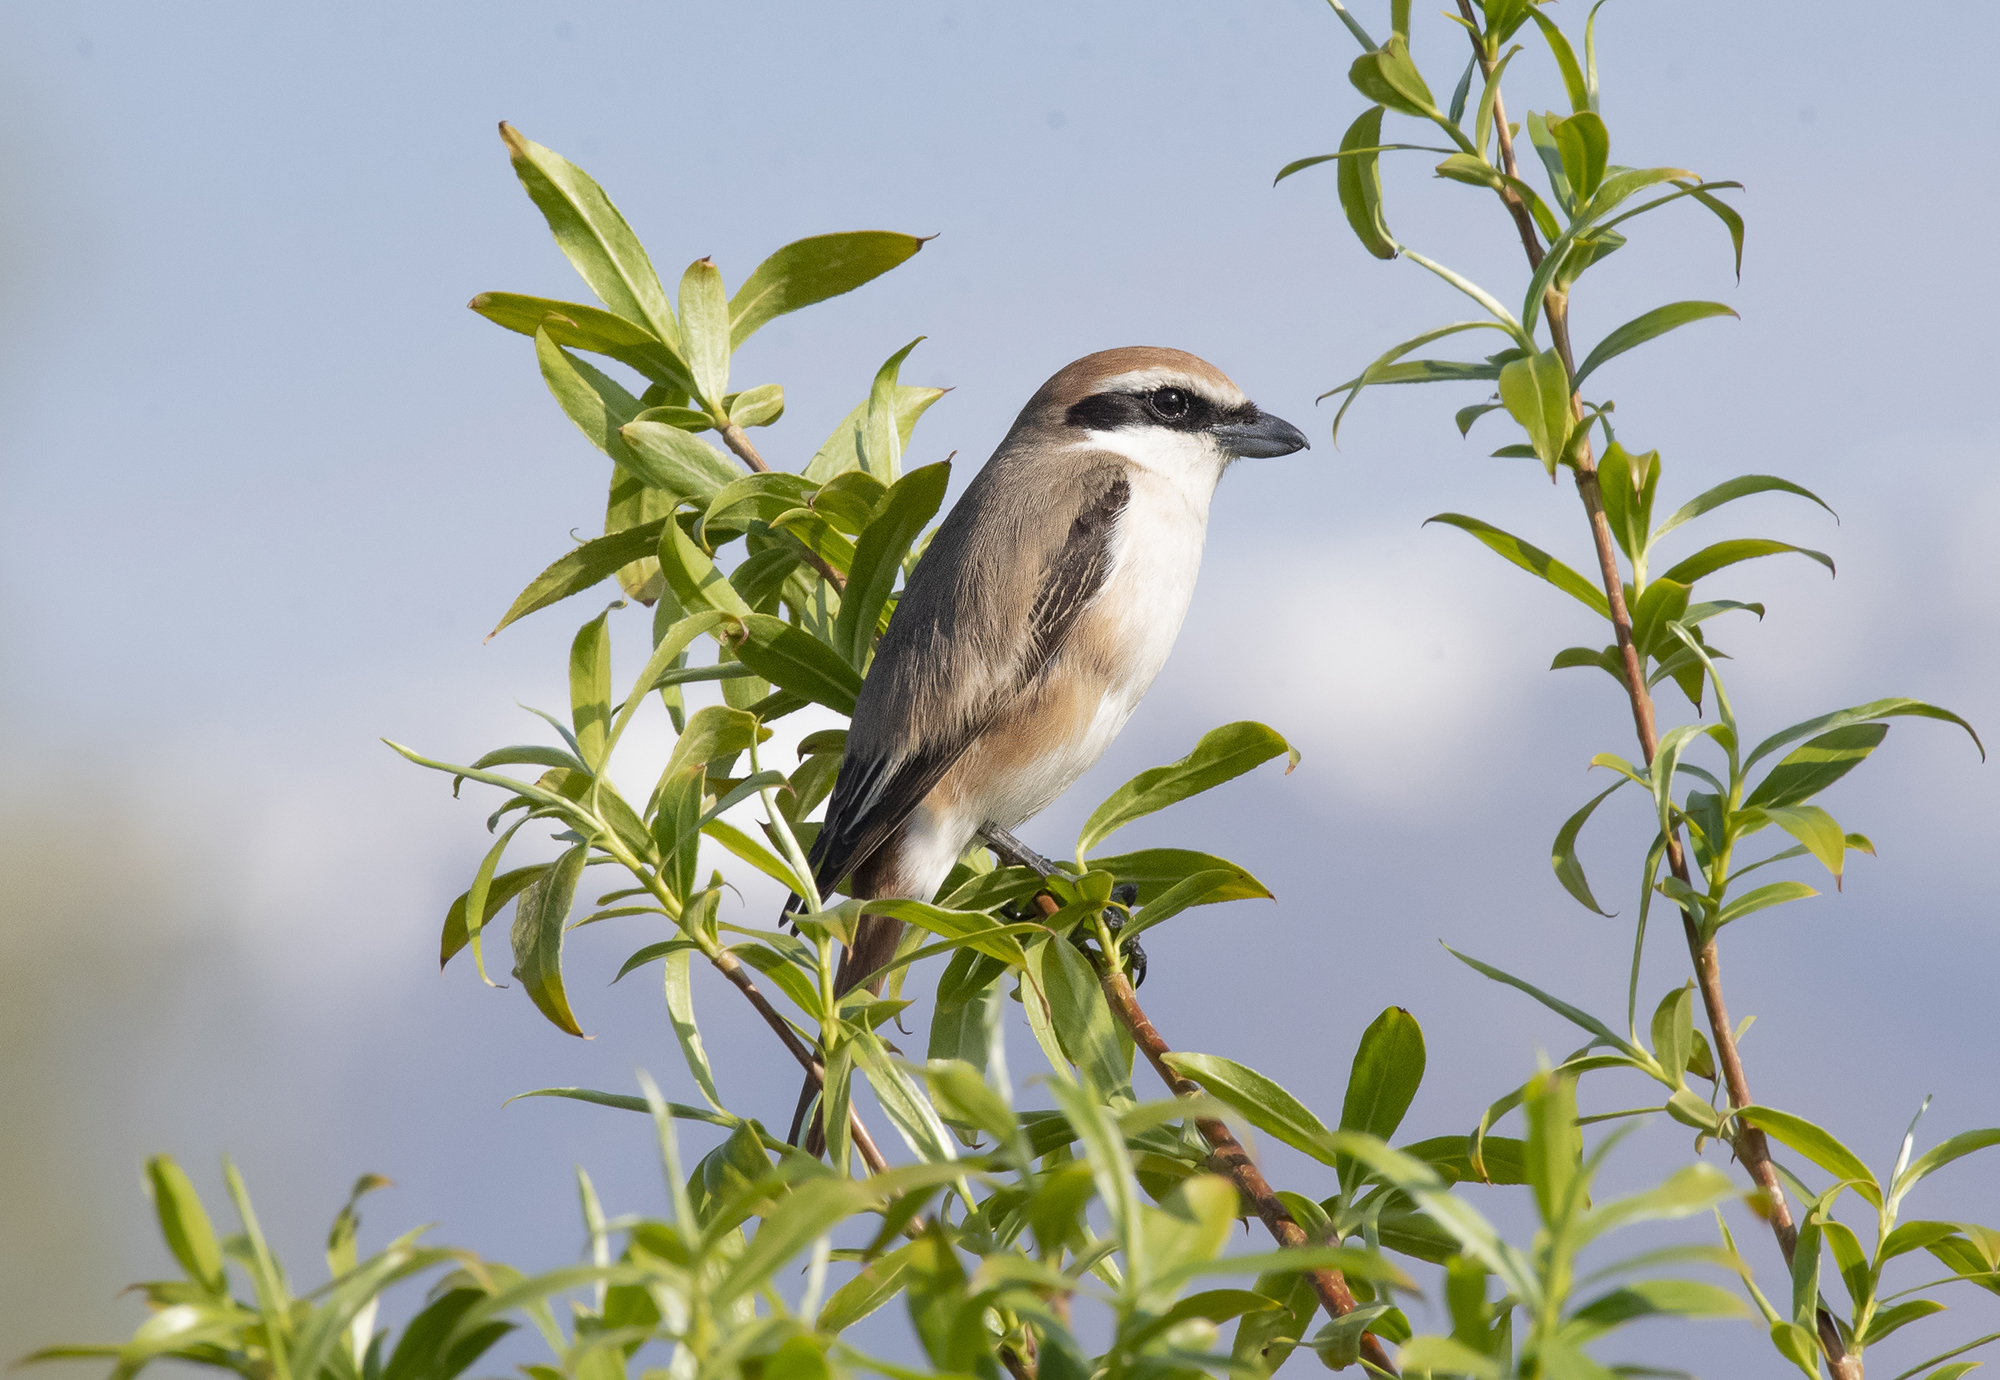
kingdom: Animalia
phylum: Chordata
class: Aves
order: Passeriformes
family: Laniidae
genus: Lanius
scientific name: Lanius phoenicuroides
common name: Red-tailed shrike
